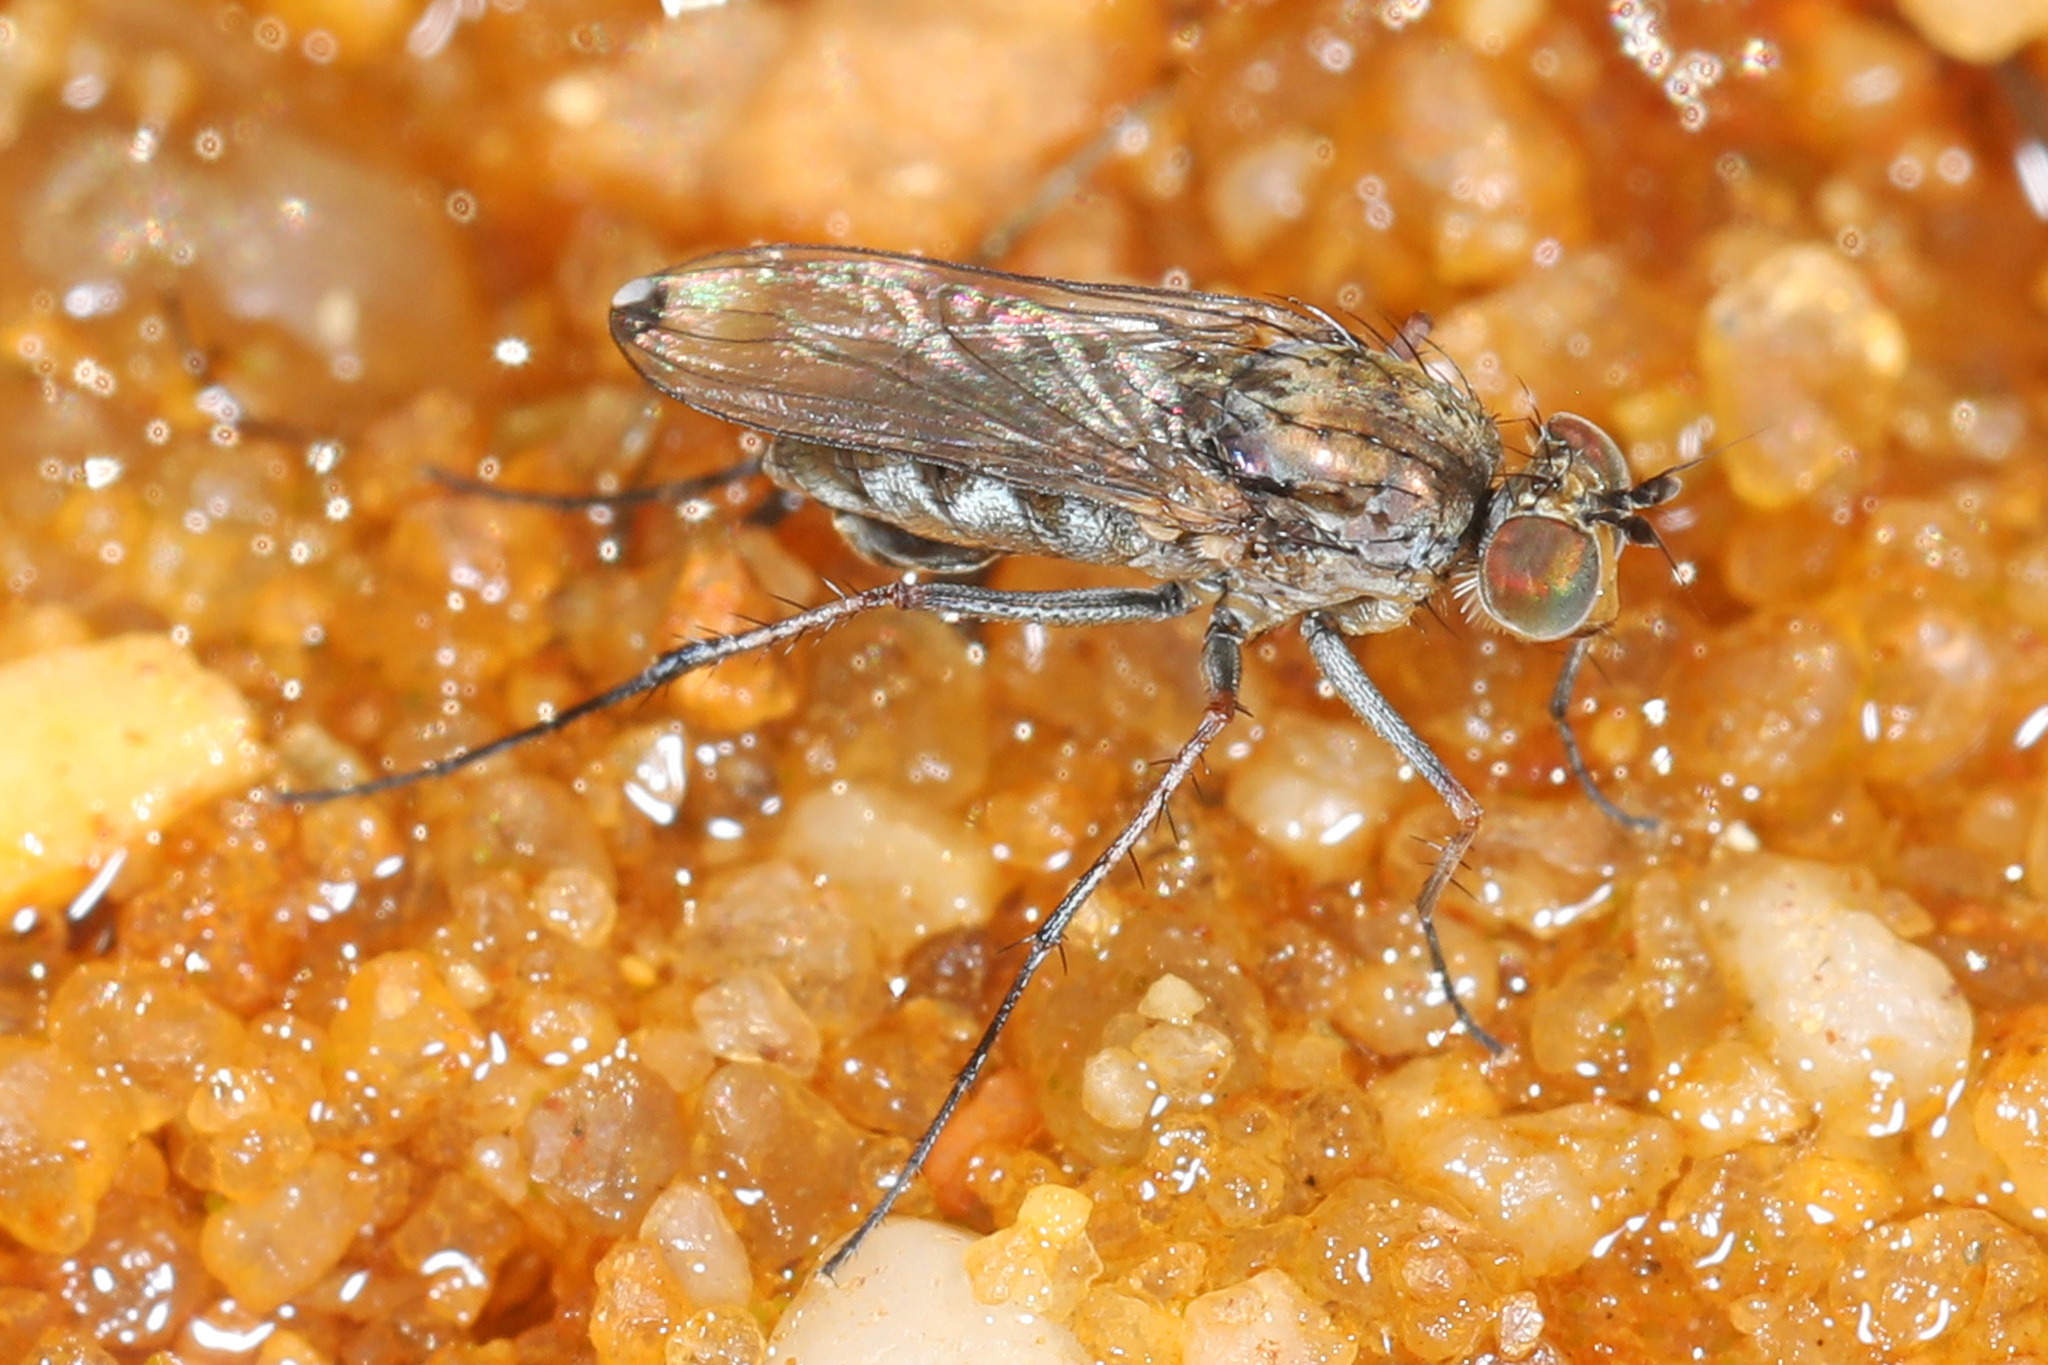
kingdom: Animalia
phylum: Arthropoda
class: Insecta
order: Diptera
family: Dolichopodidae
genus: Tachytrechus
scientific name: Tachytrechus vorax
